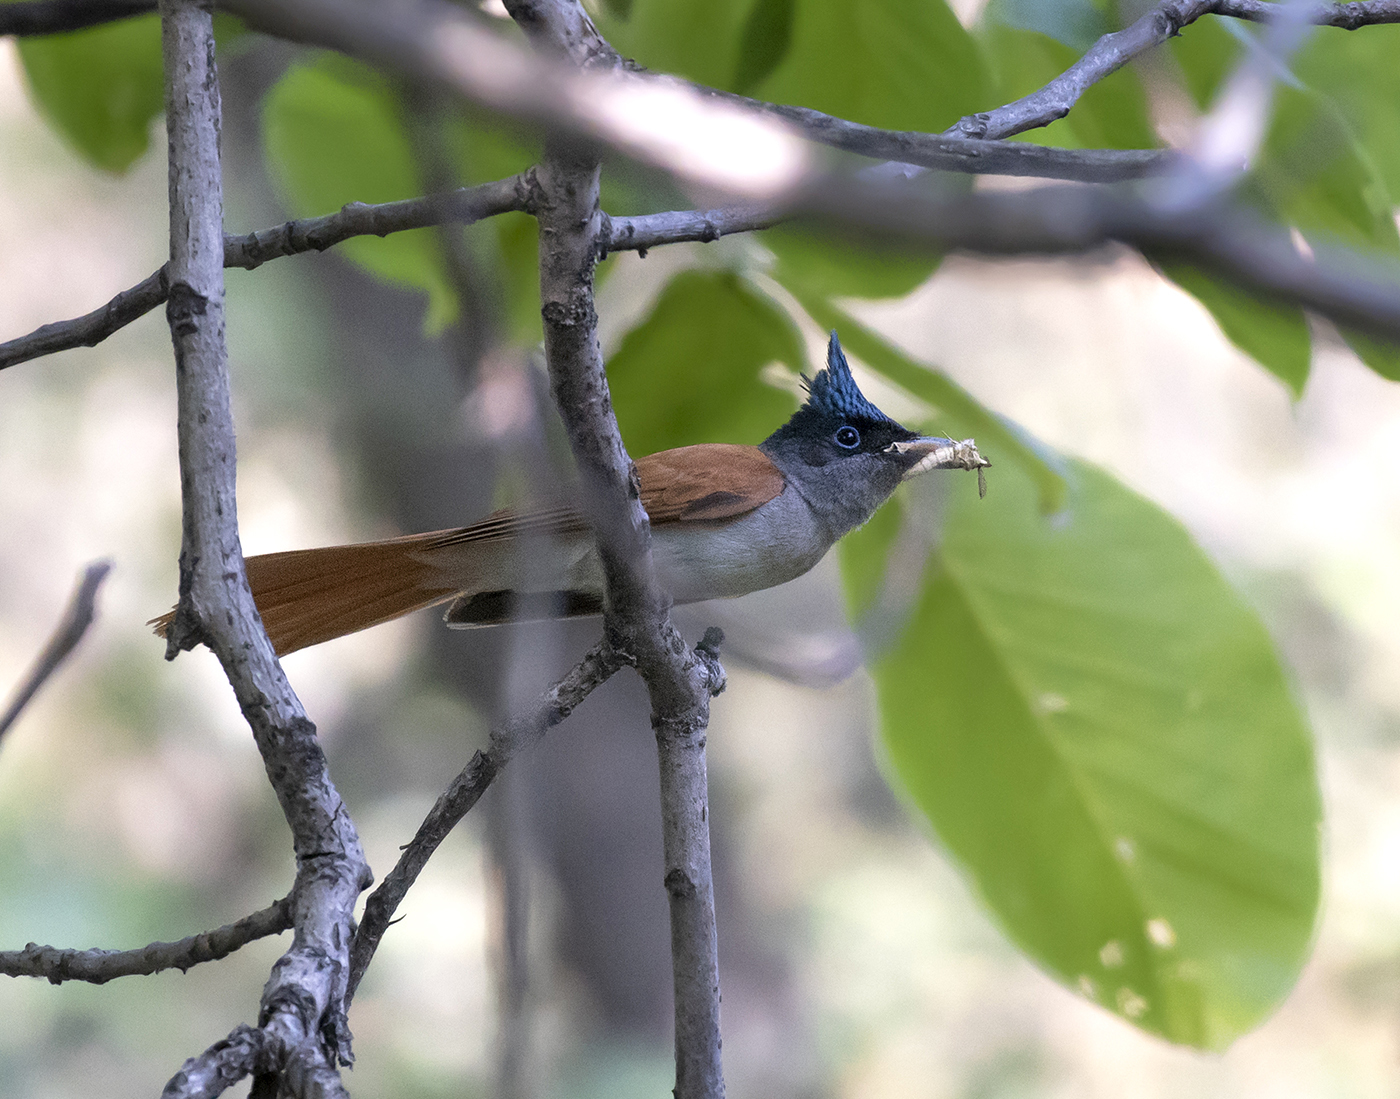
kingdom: Animalia
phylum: Chordata
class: Aves
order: Passeriformes
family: Monarchidae
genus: Terpsiphone
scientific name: Terpsiphone paradisi
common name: Indian paradise flycatcher
